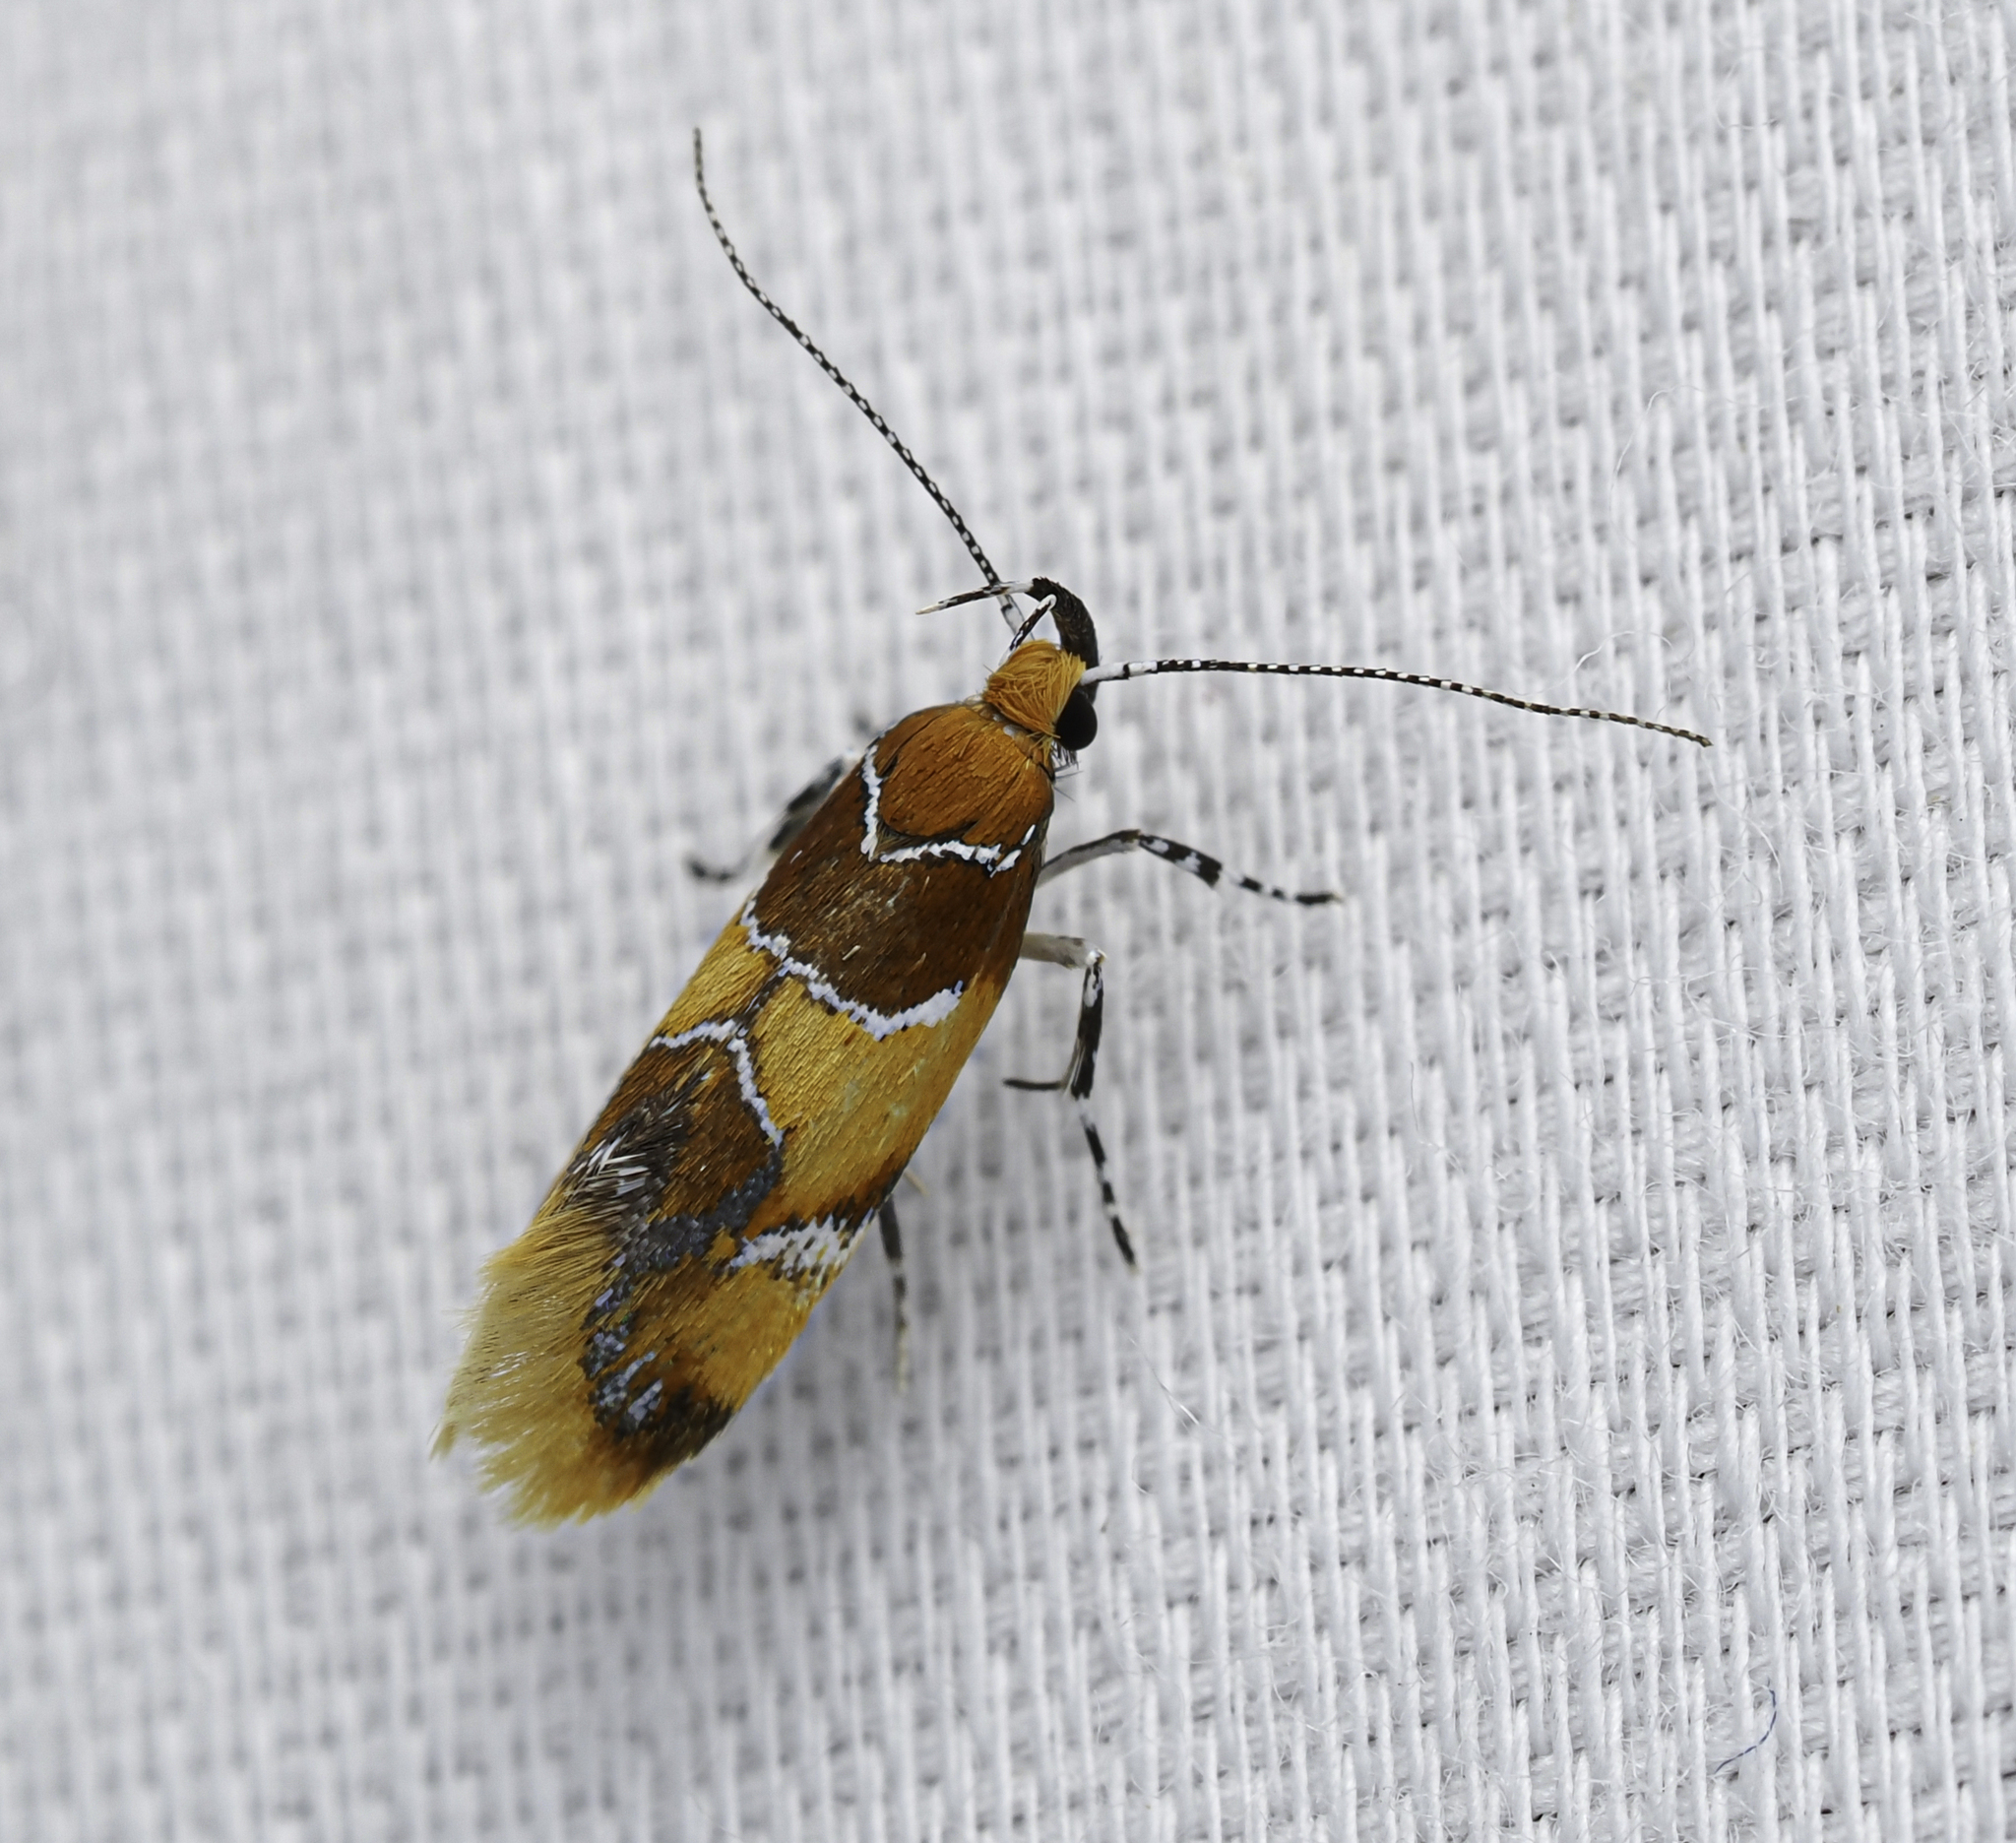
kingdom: Animalia
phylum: Arthropoda
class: Insecta
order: Lepidoptera
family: Oecophoridae
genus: Callima
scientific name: Callima argenticinctella
